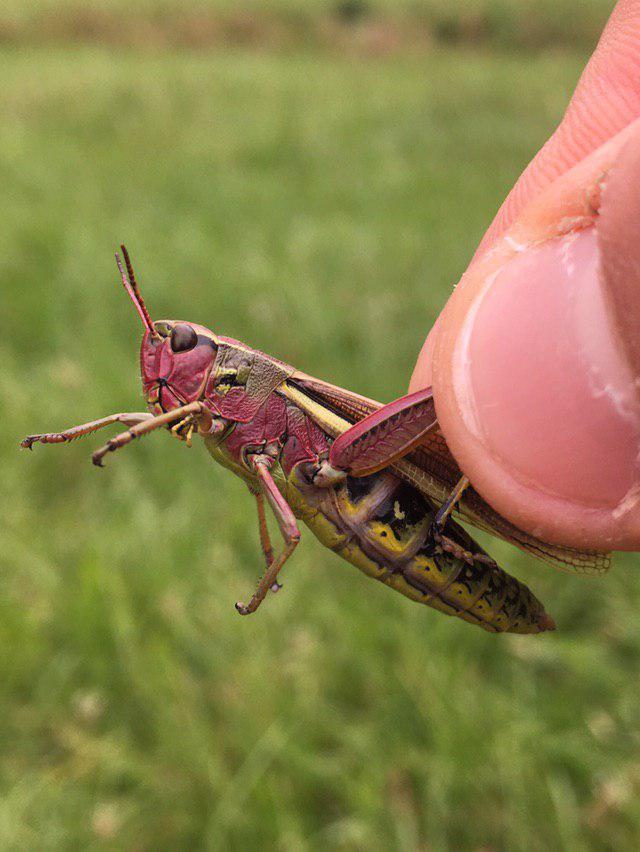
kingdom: Animalia
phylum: Arthropoda
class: Insecta
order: Orthoptera
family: Acrididae
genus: Stethophyma
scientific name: Stethophyma grossum
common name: Large marsh grasshopper
